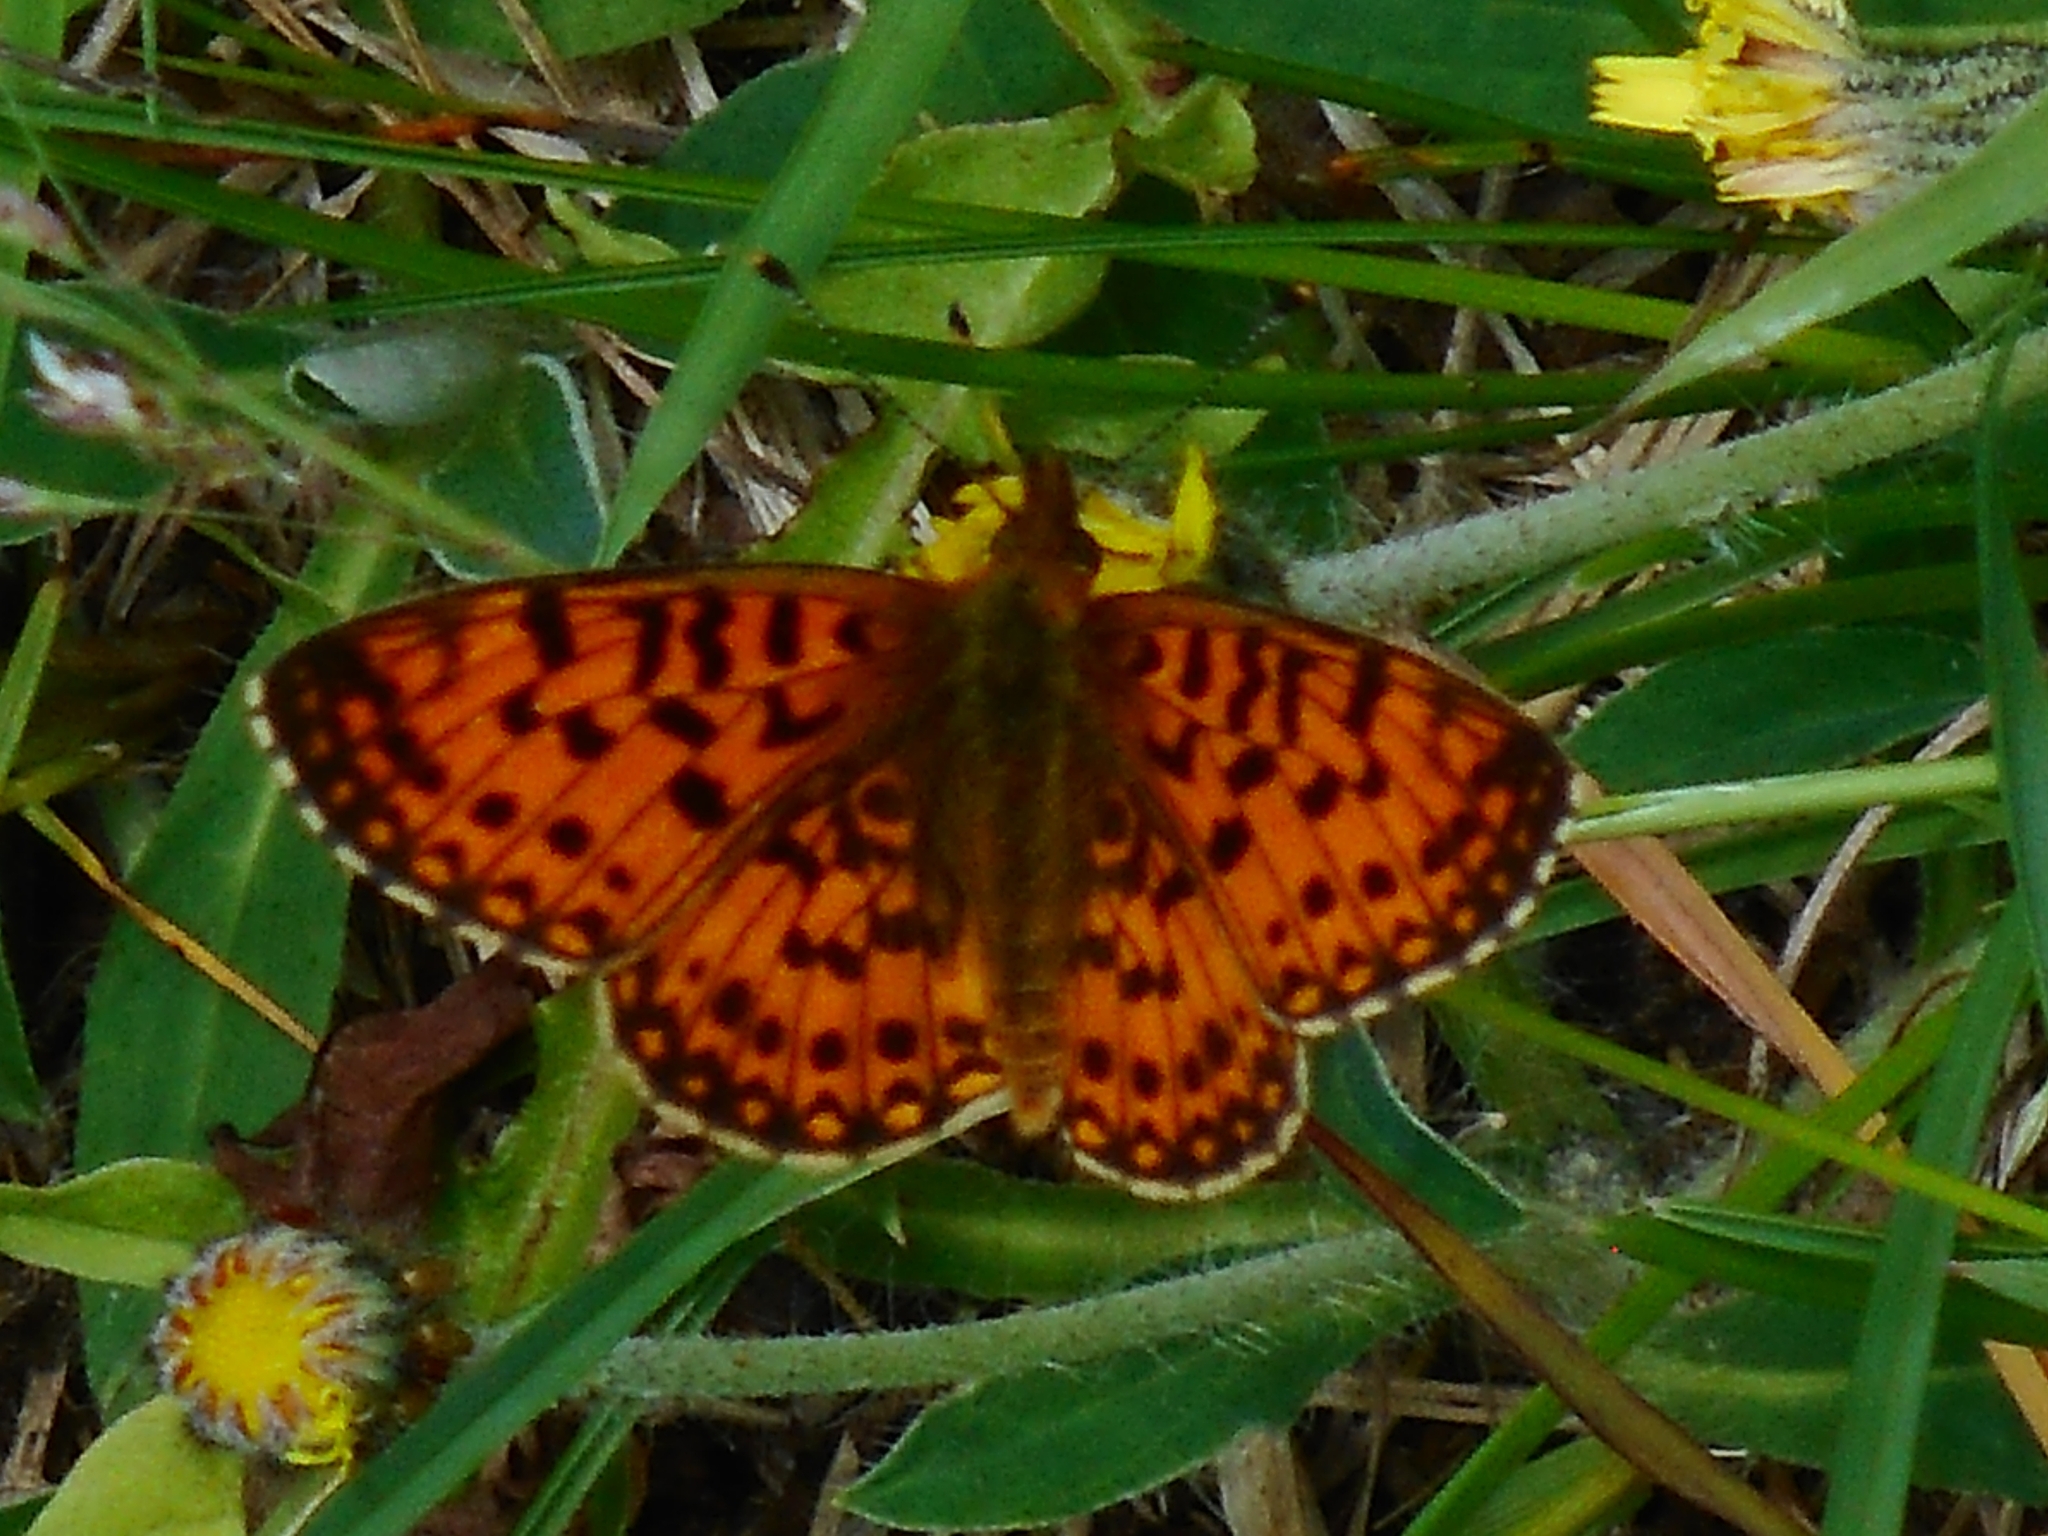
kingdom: Animalia
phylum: Arthropoda
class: Insecta
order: Lepidoptera
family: Nymphalidae
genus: Boloria
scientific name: Boloria selene
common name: Small pearl-bordered fritillary
